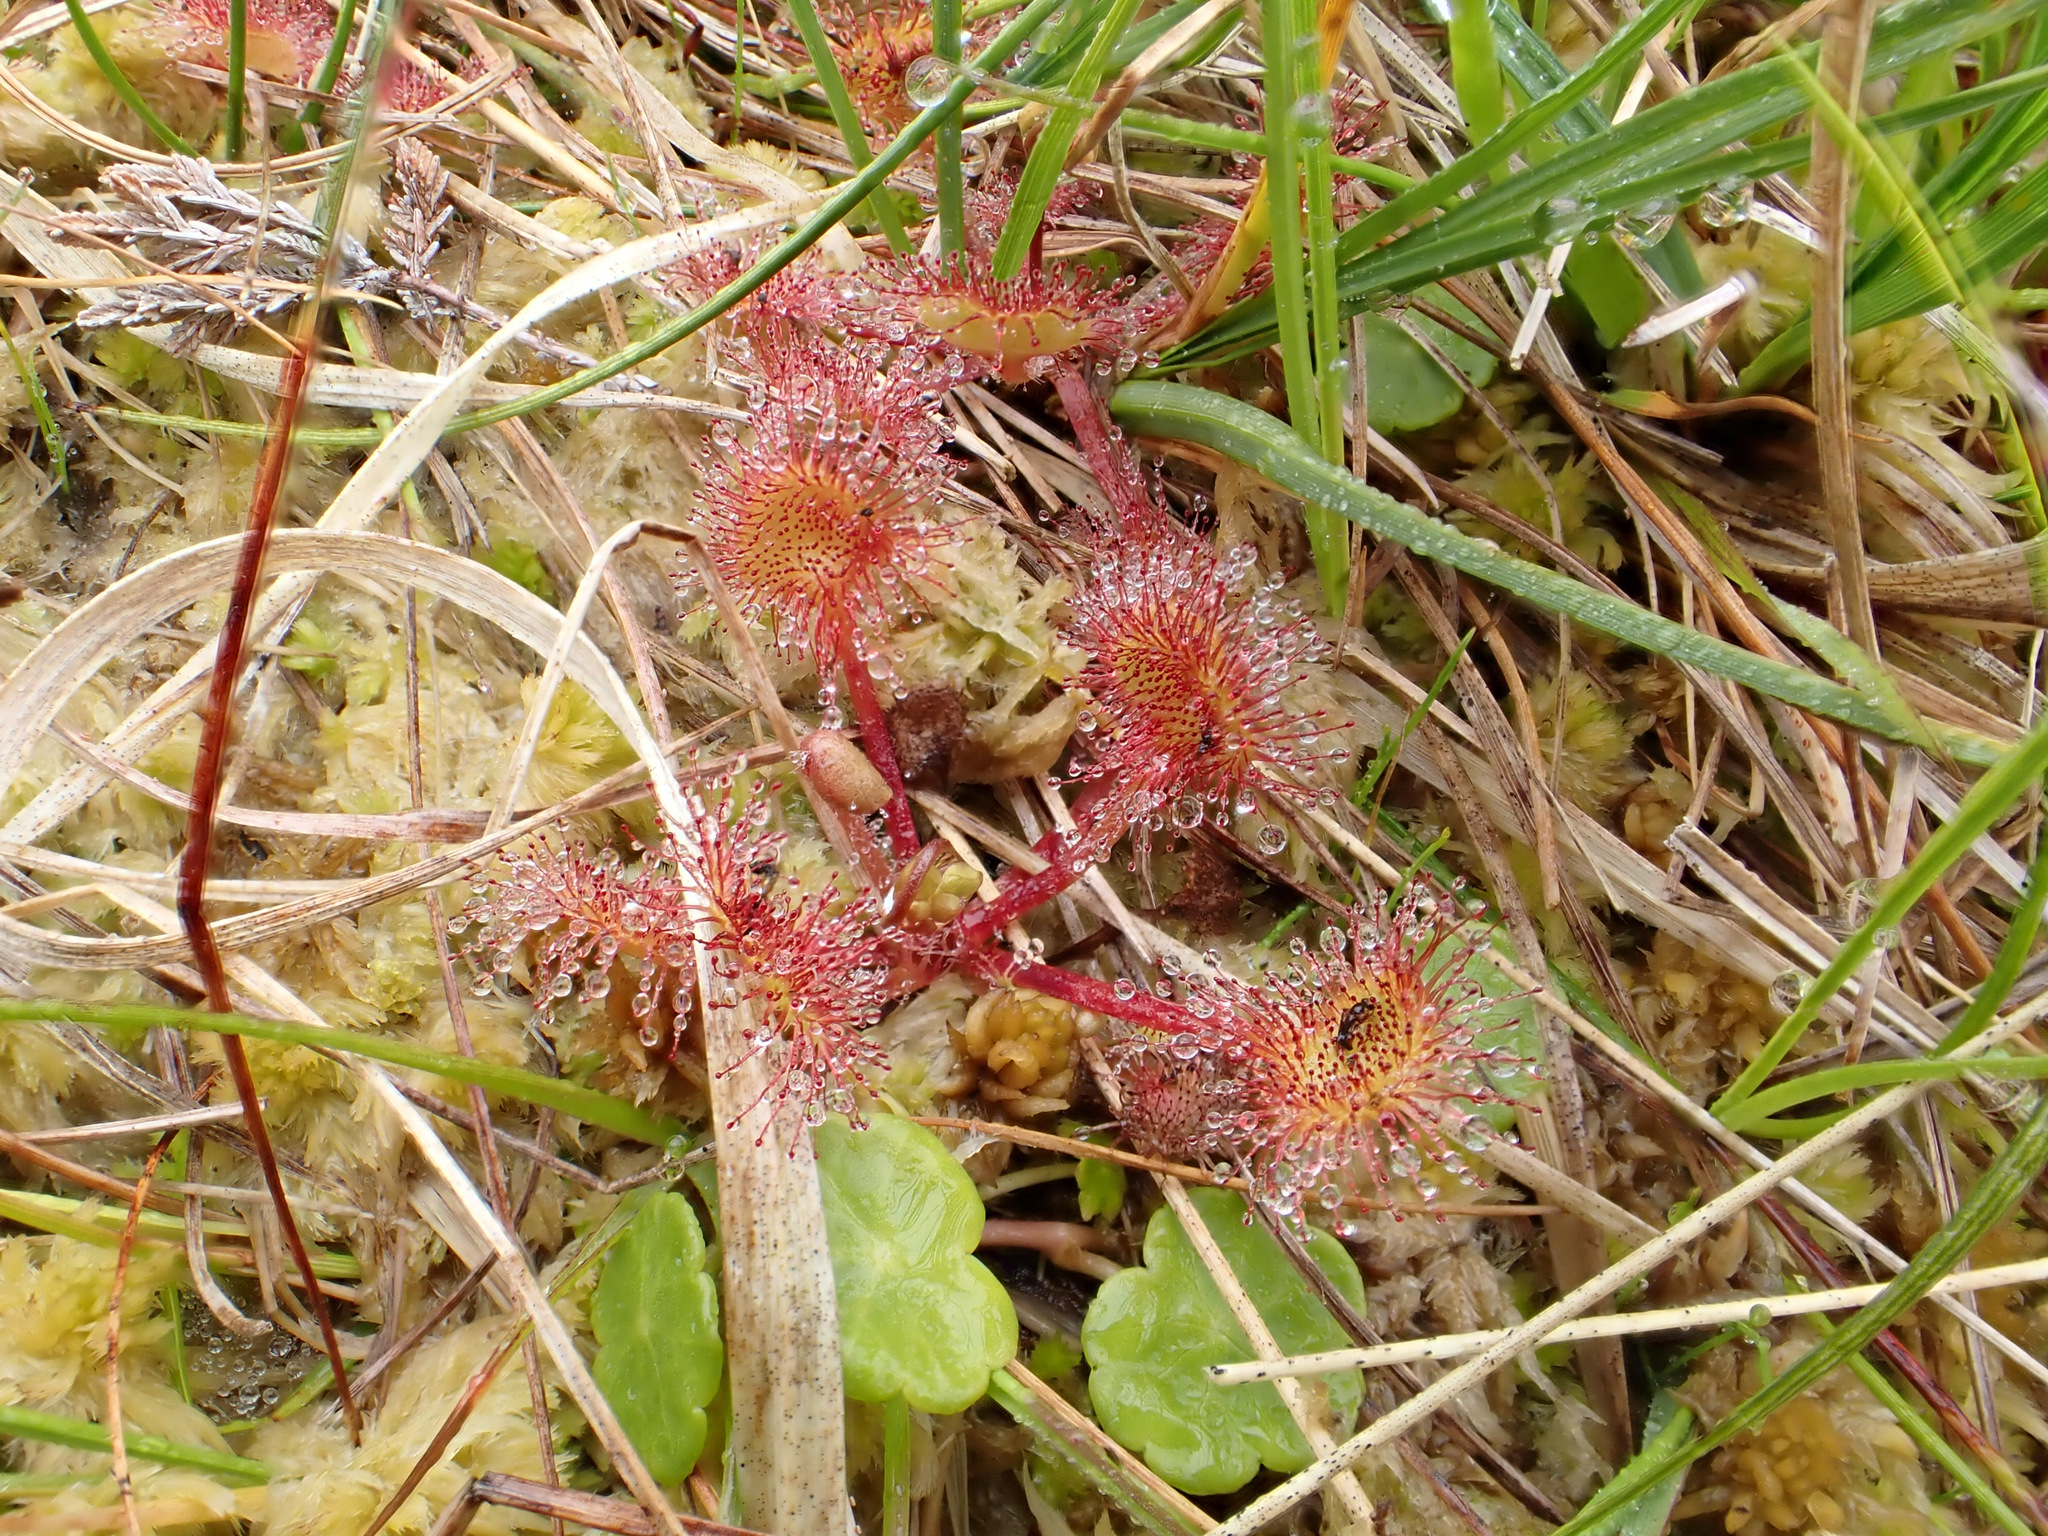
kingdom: Plantae
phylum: Tracheophyta
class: Magnoliopsida
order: Caryophyllales
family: Droseraceae
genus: Drosera
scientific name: Drosera rotundifolia
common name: Round-leaved sundew
